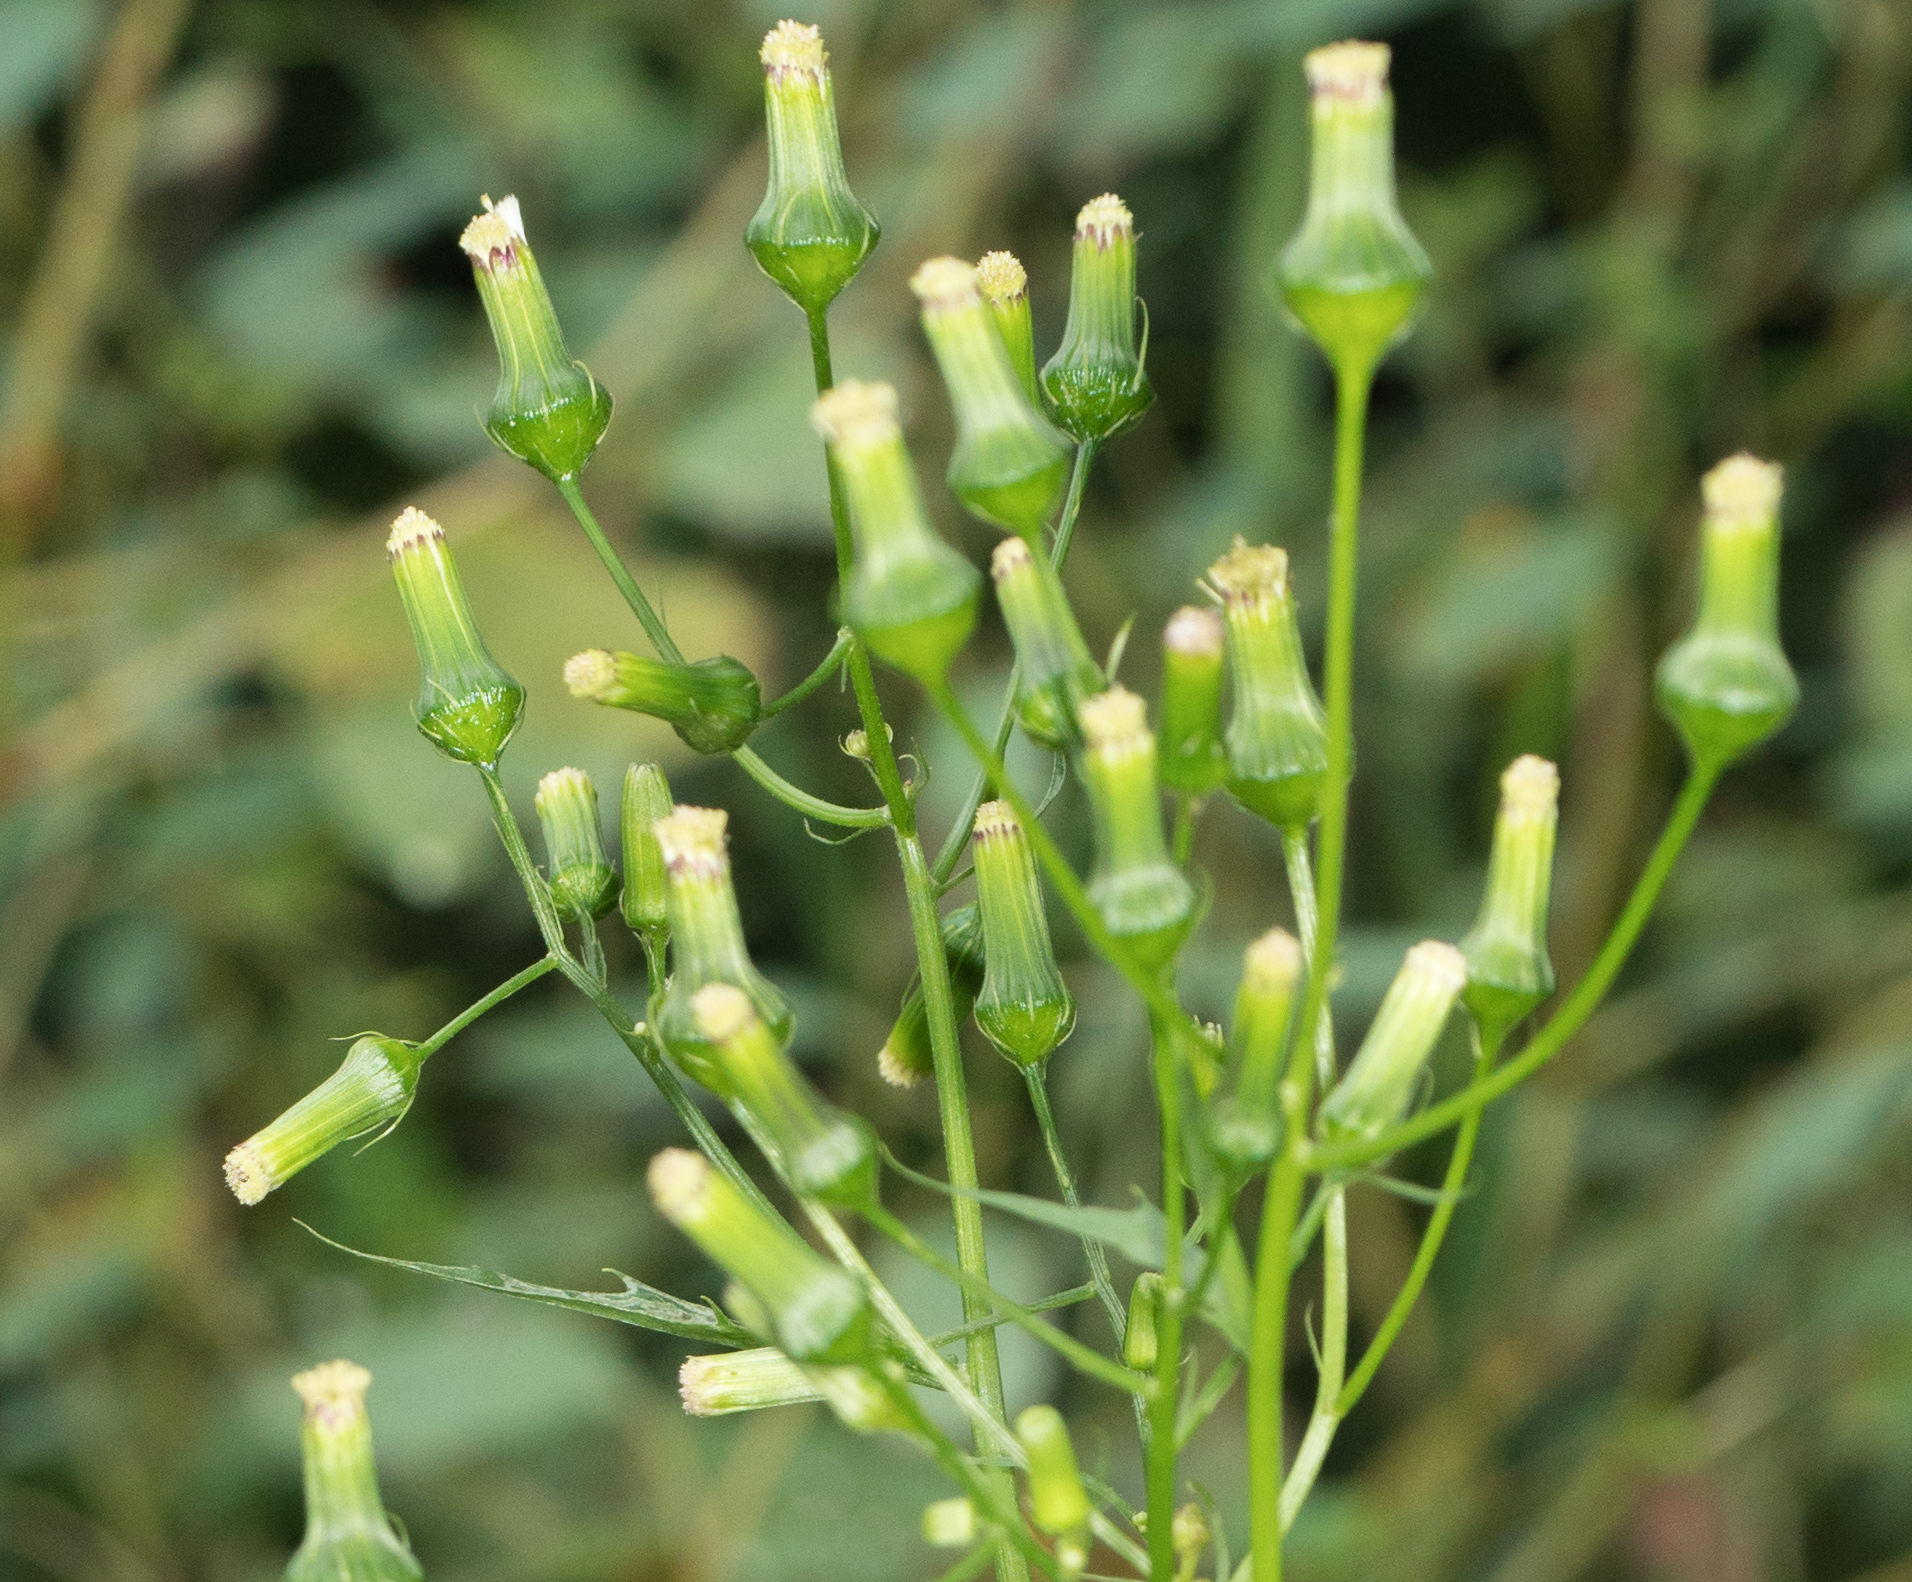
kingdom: Plantae
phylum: Tracheophyta
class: Magnoliopsida
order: Asterales
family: Asteraceae
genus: Erechtites
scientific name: Erechtites hieraciifolius
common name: American burnweed
